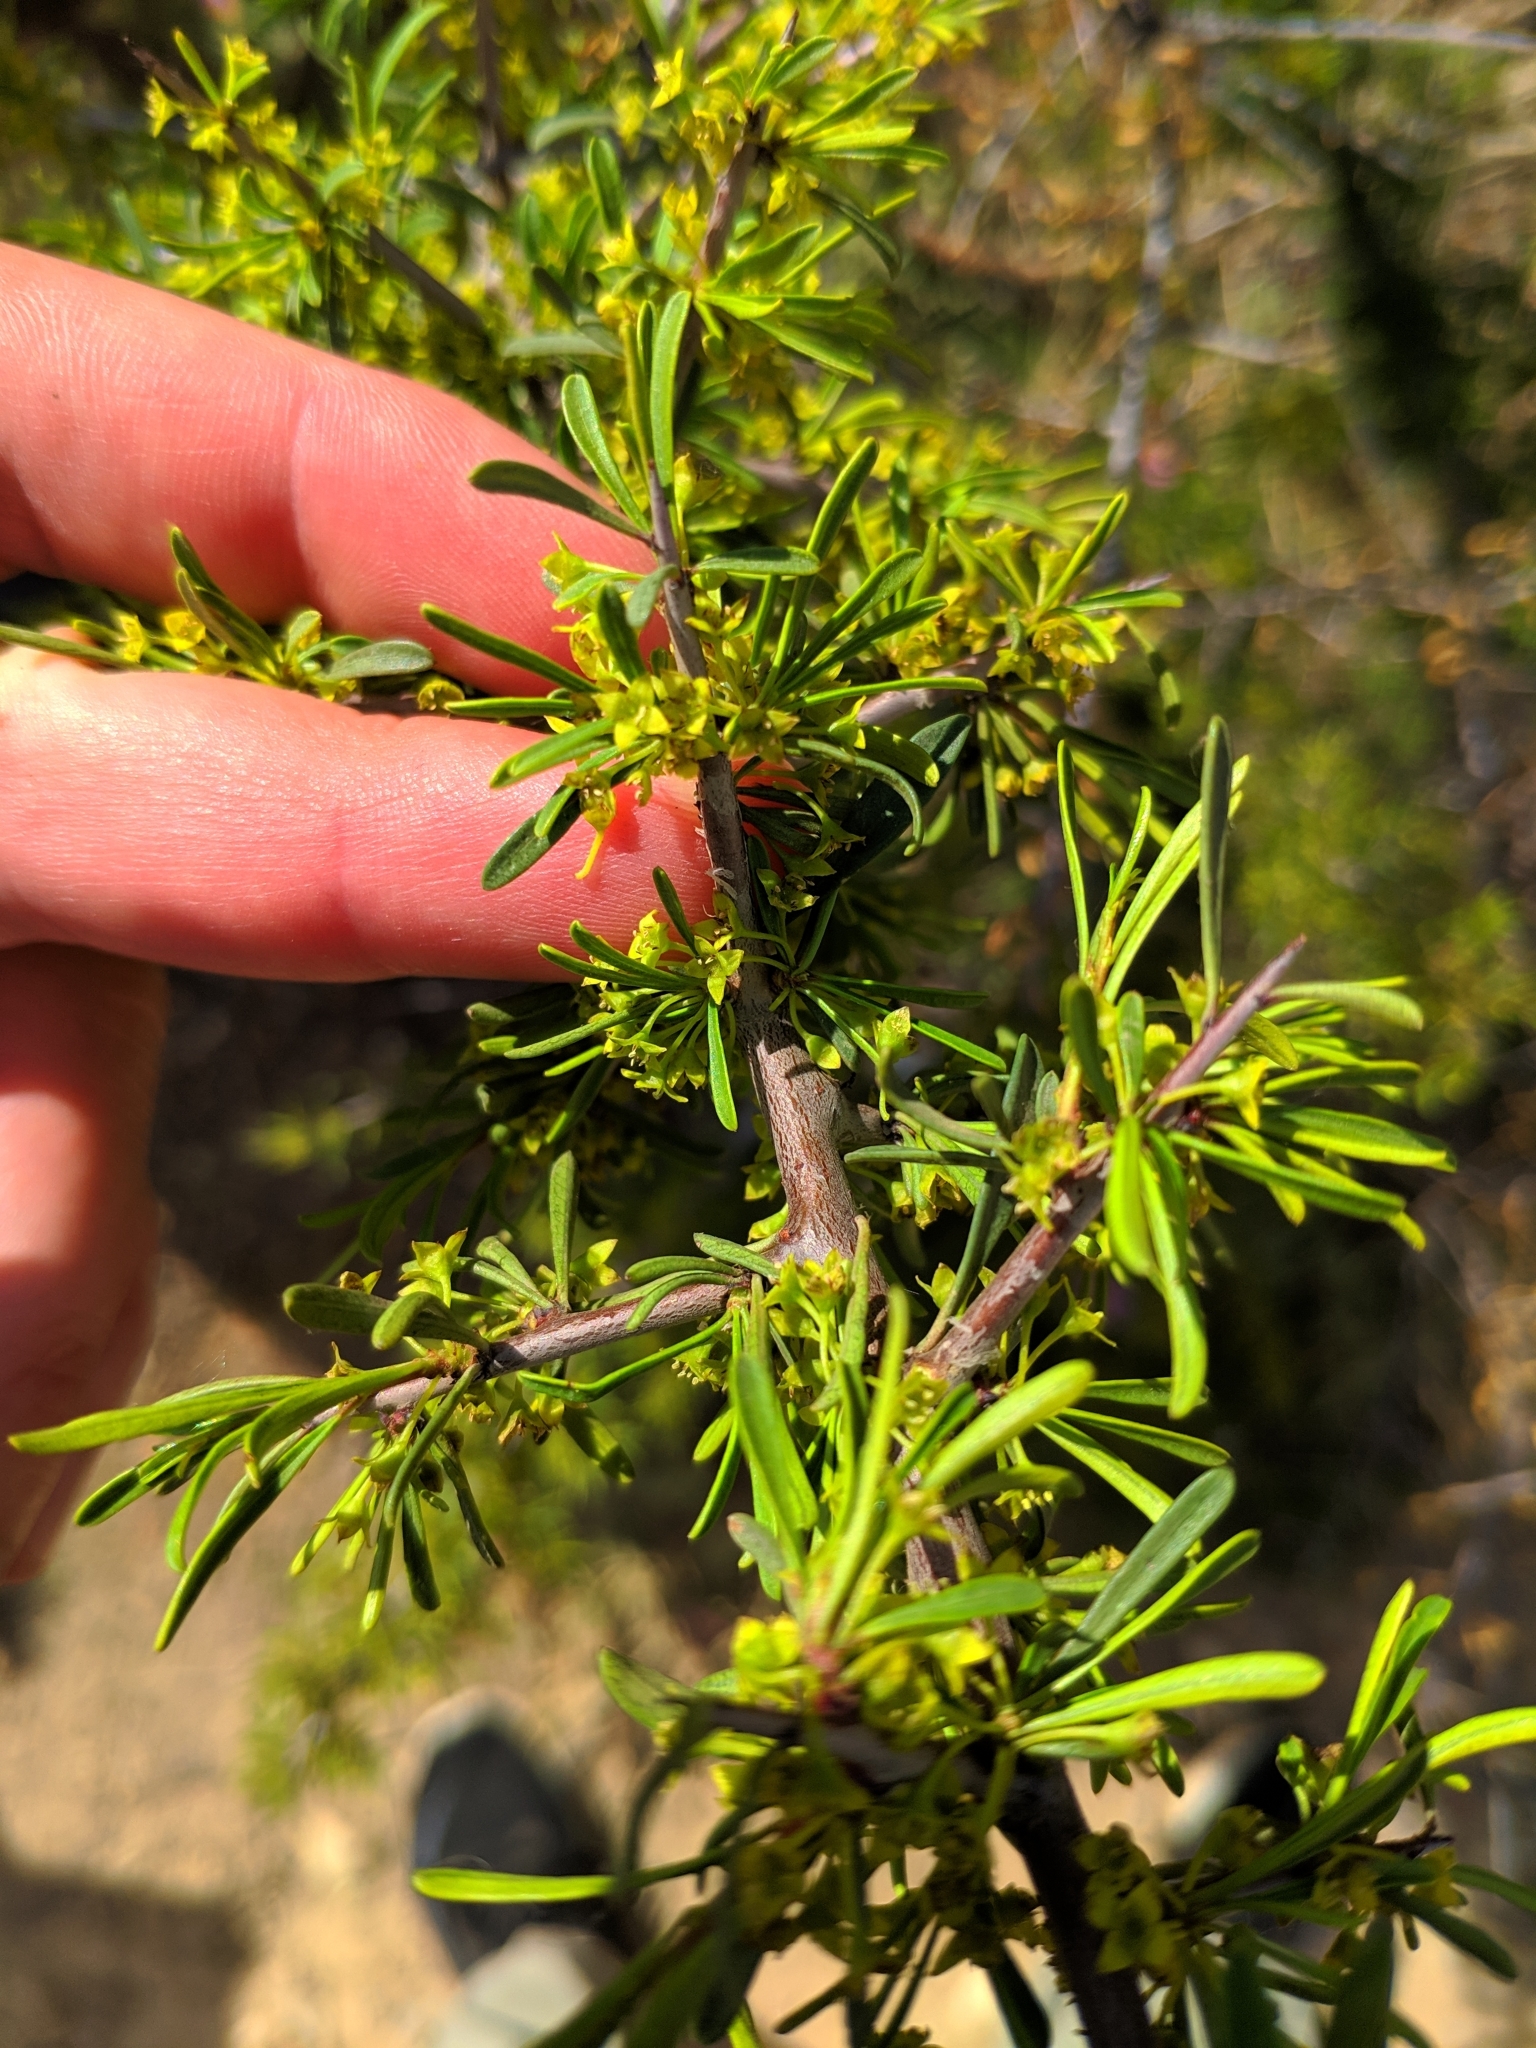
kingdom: Plantae
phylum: Tracheophyta
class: Magnoliopsida
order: Rosales
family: Rhamnaceae
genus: Rhamnus
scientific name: Rhamnus lycioides
